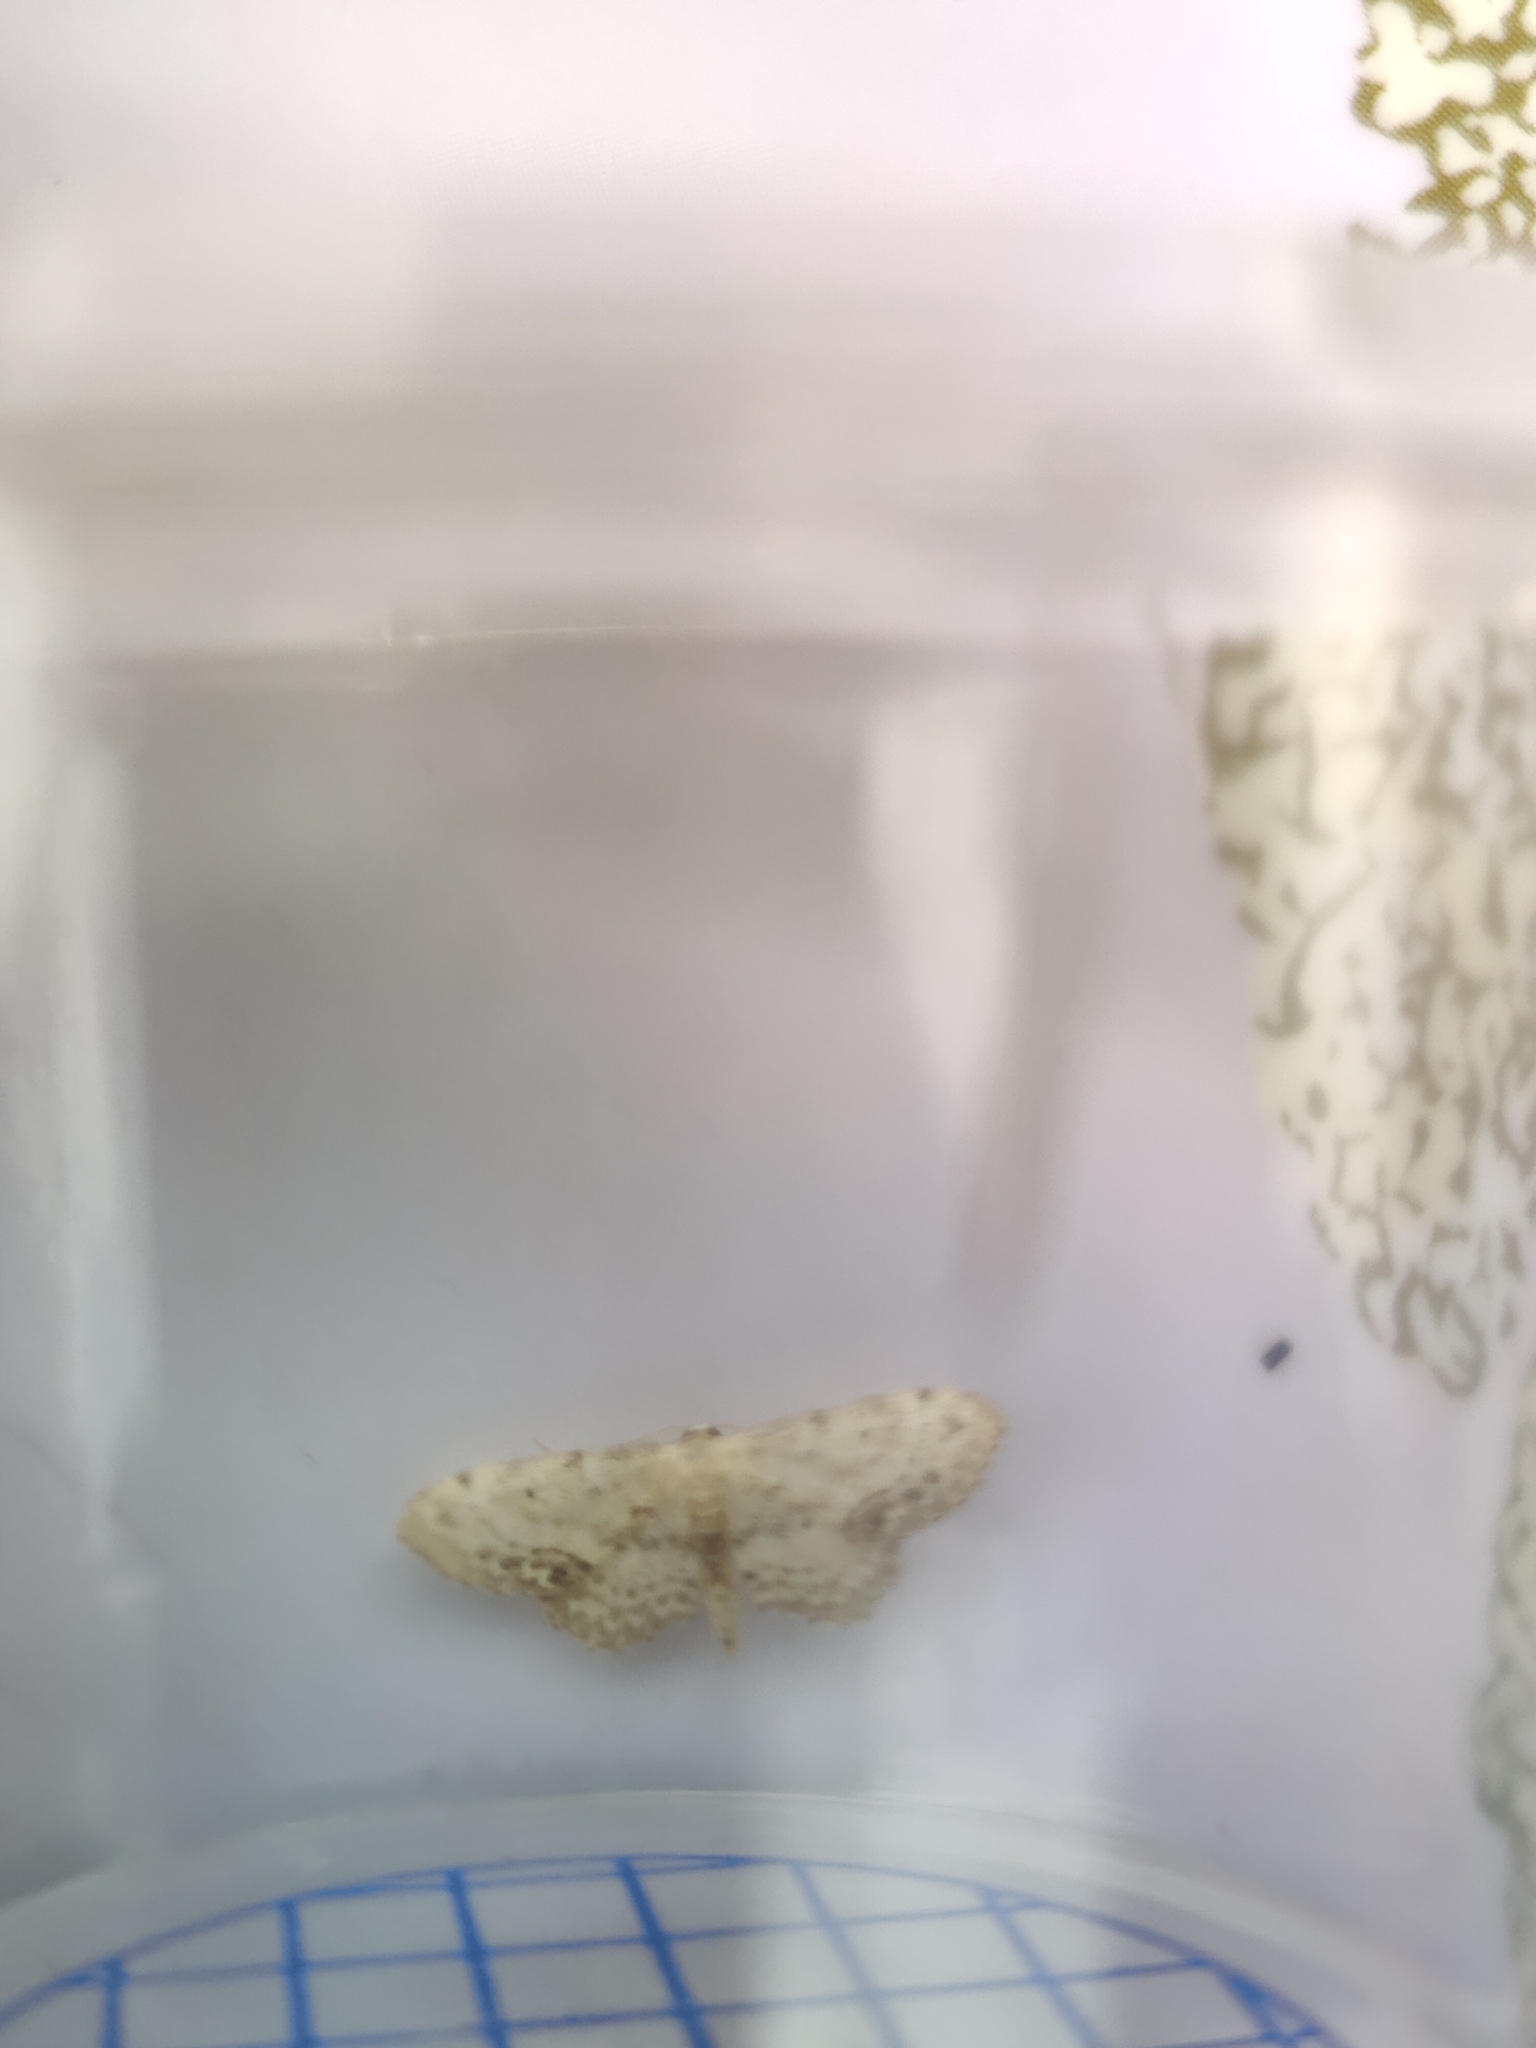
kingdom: Animalia
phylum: Arthropoda
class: Insecta
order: Lepidoptera
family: Geometridae
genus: Idaea
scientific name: Idaea dimidiata
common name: Single-dotted wave
